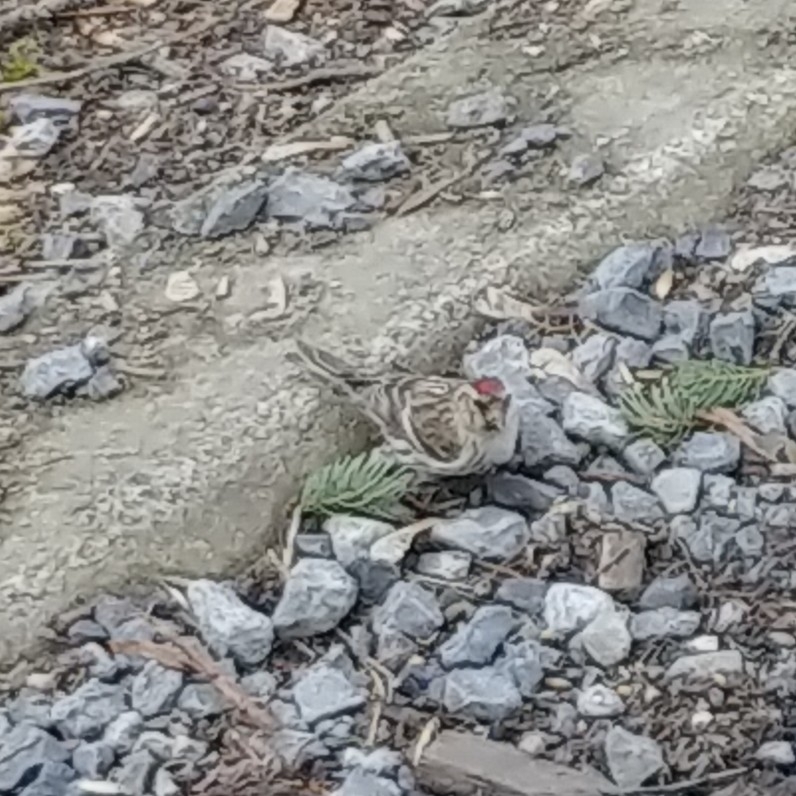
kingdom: Animalia
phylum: Chordata
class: Aves
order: Passeriformes
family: Fringillidae
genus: Acanthis
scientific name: Acanthis flammea
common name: Common redpoll
